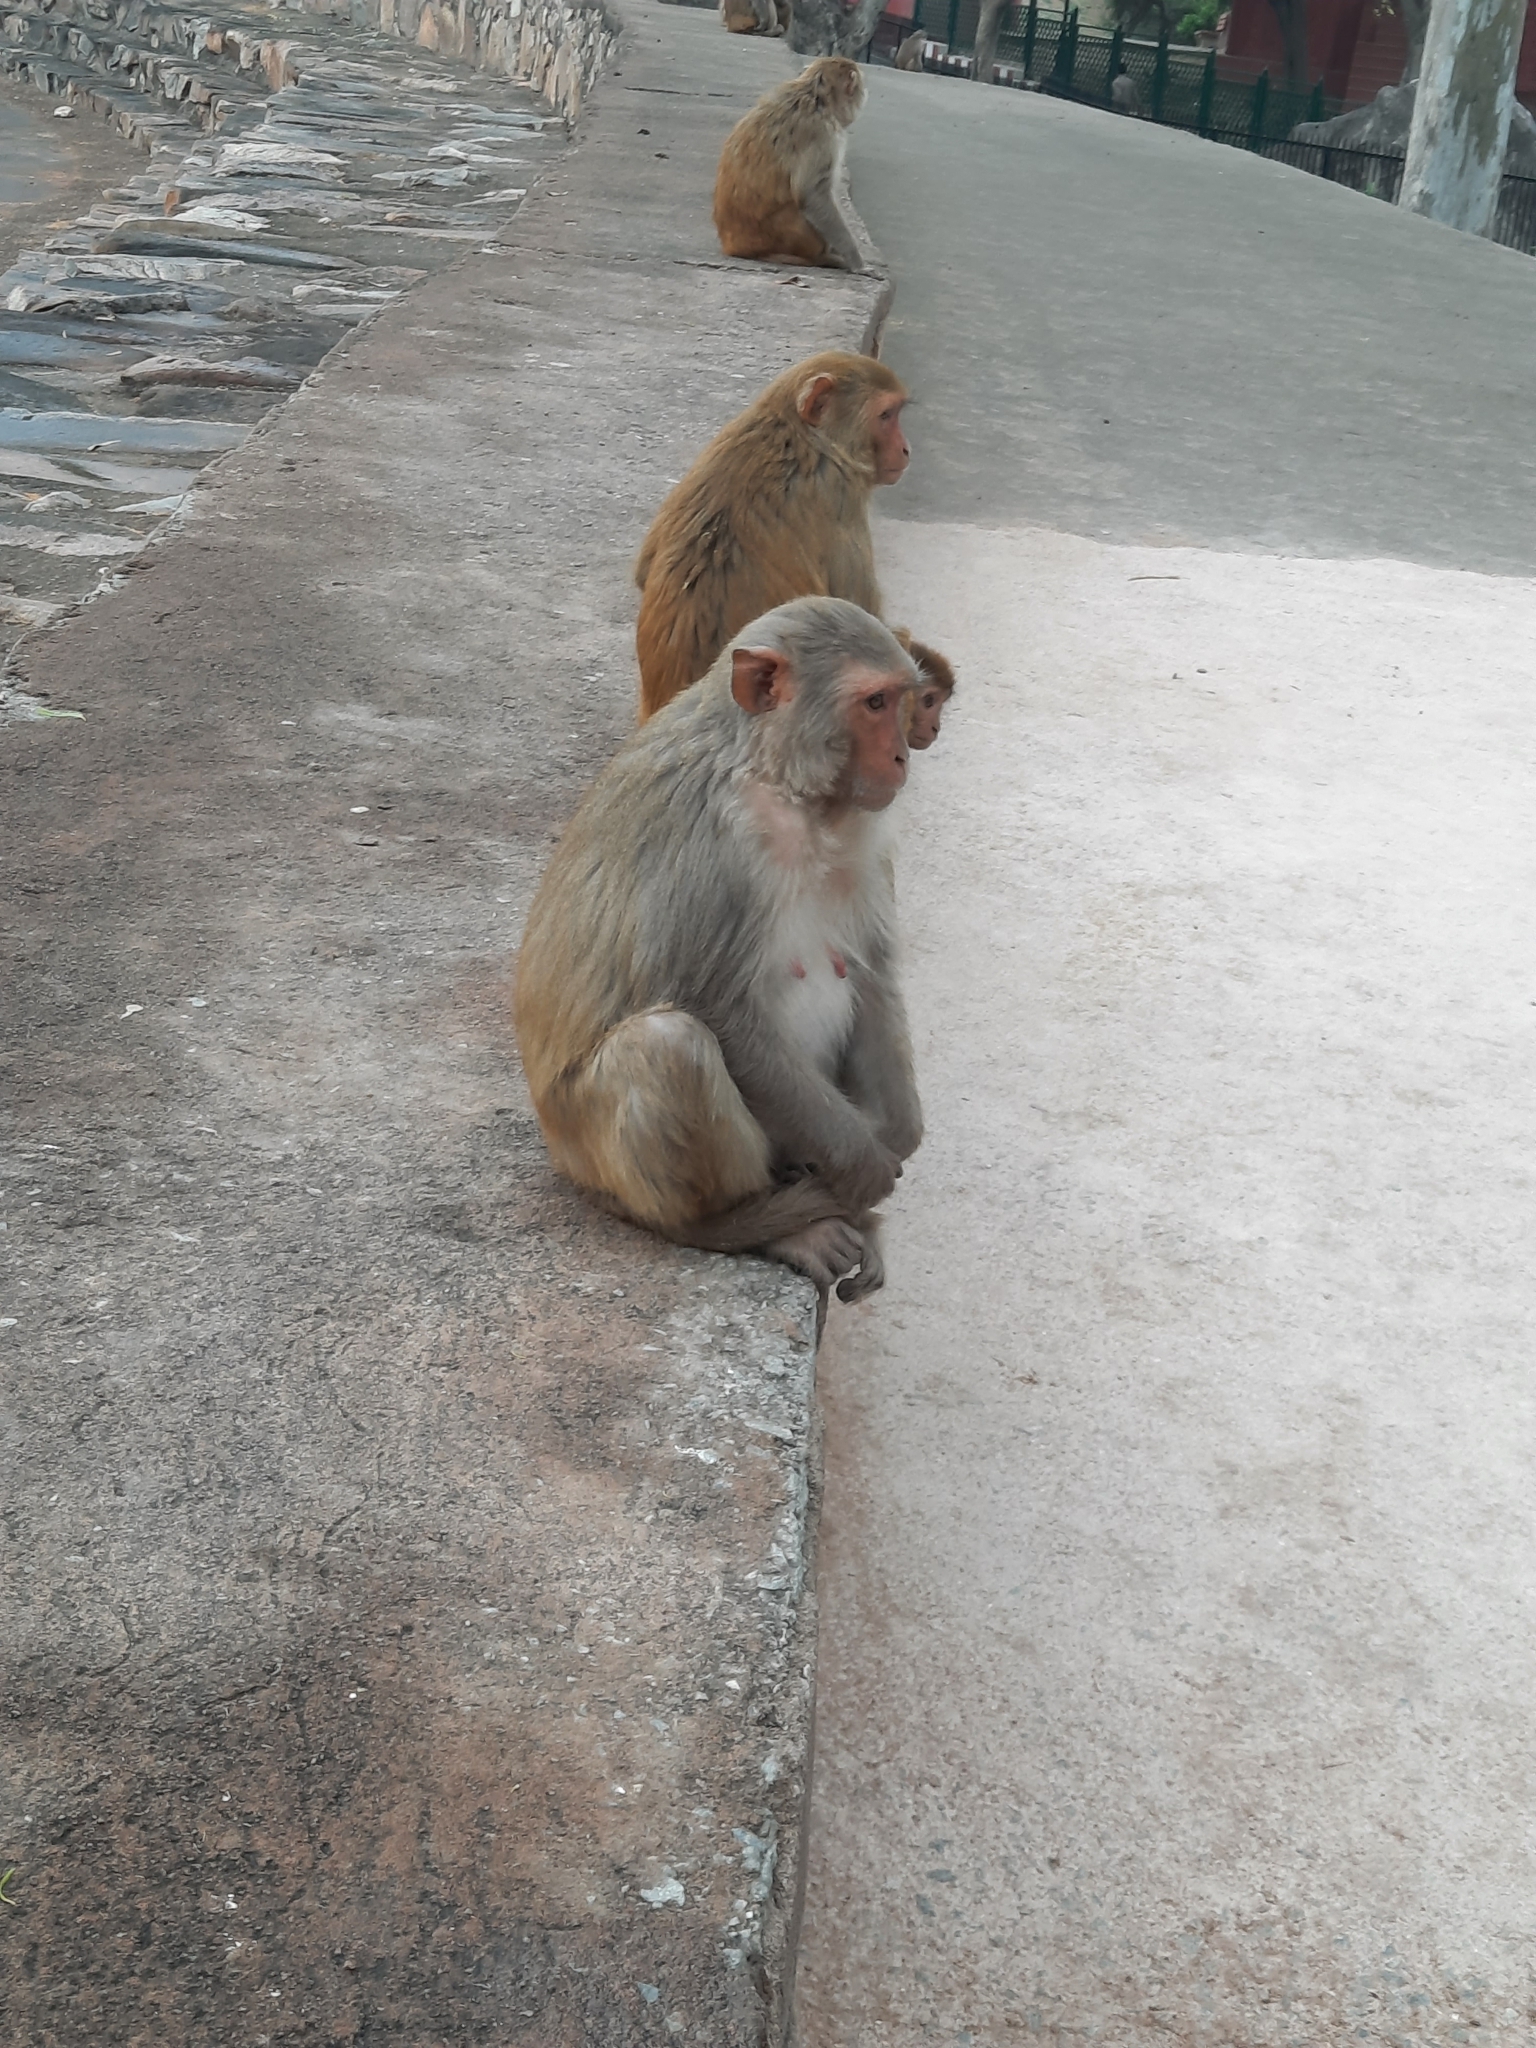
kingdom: Animalia
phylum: Chordata
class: Mammalia
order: Primates
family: Cercopithecidae
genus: Macaca
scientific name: Macaca mulatta
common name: Rhesus monkey
